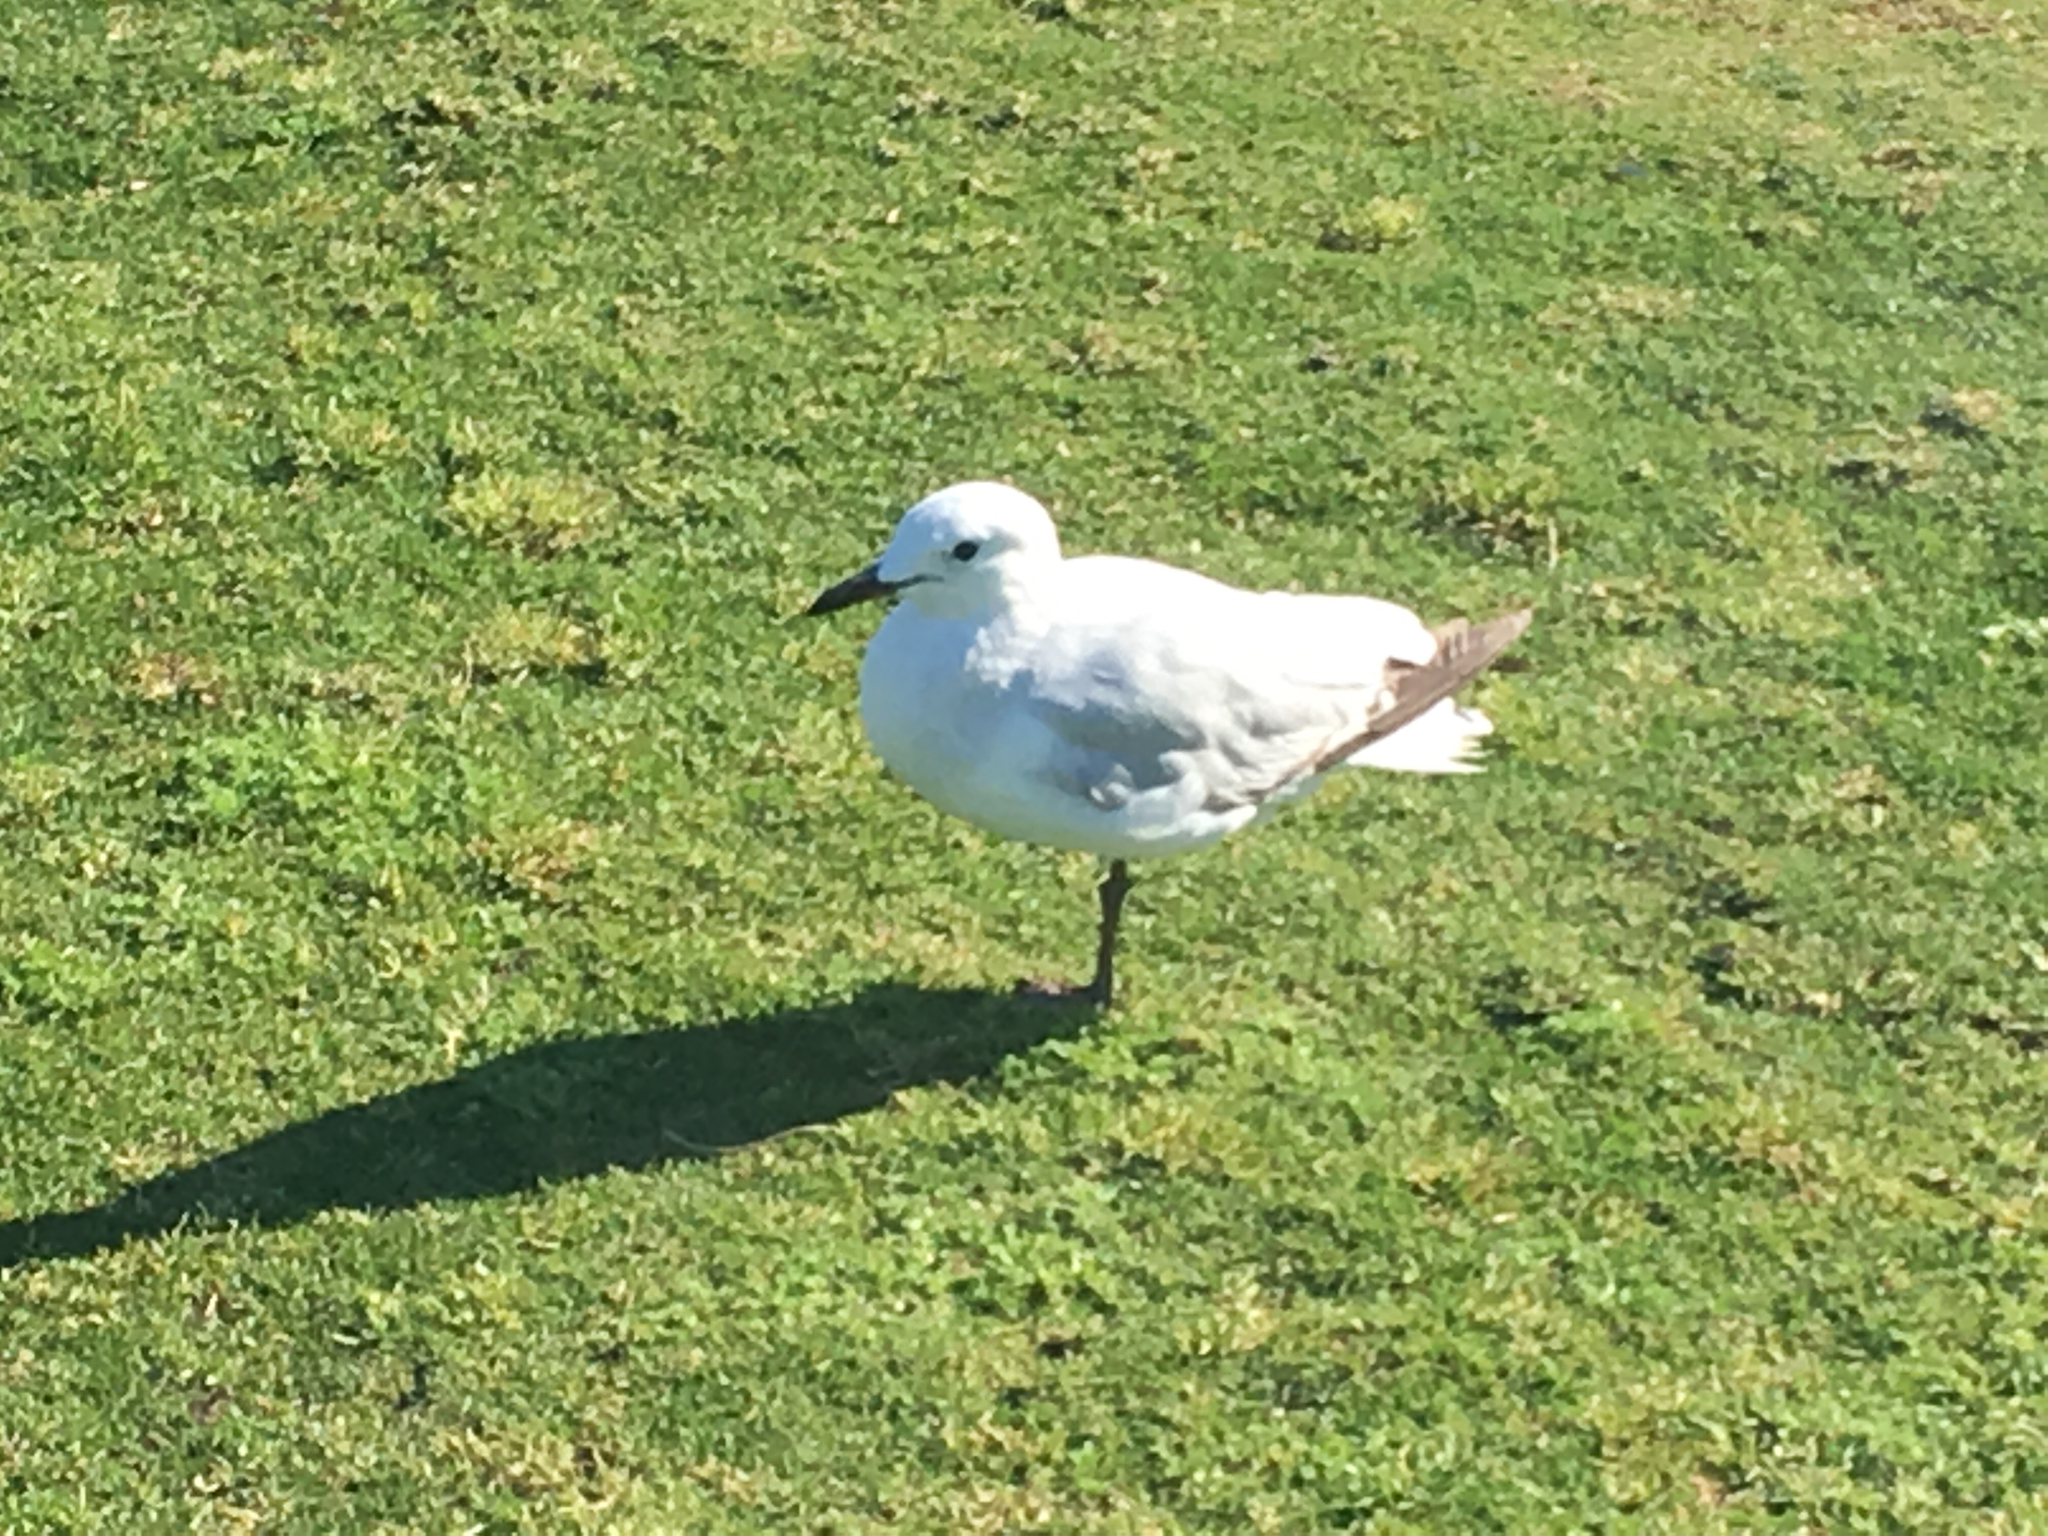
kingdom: Animalia
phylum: Chordata
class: Aves
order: Charadriiformes
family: Laridae
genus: Chroicocephalus
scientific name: Chroicocephalus novaehollandiae
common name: Silver gull
